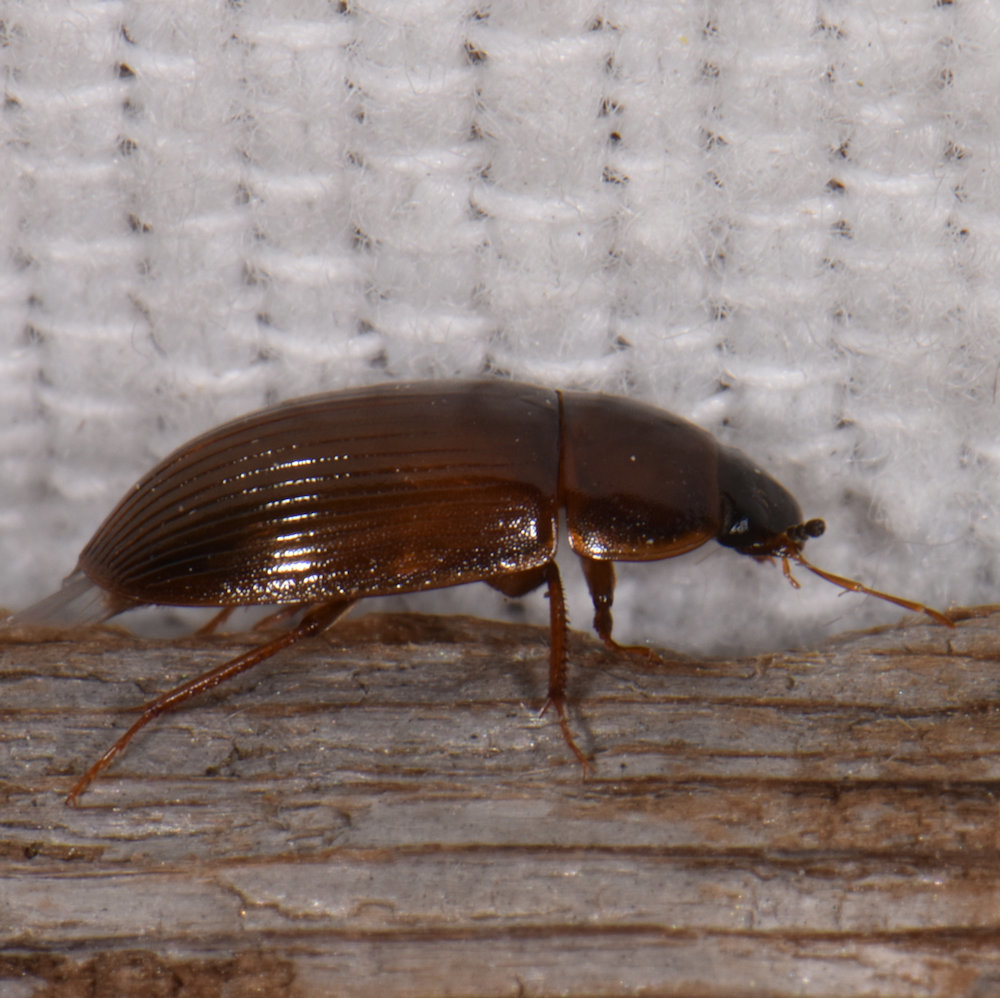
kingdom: Animalia
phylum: Arthropoda
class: Insecta
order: Coleoptera
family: Hydrophilidae
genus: Cymbiodyta
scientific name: Cymbiodyta bifida
